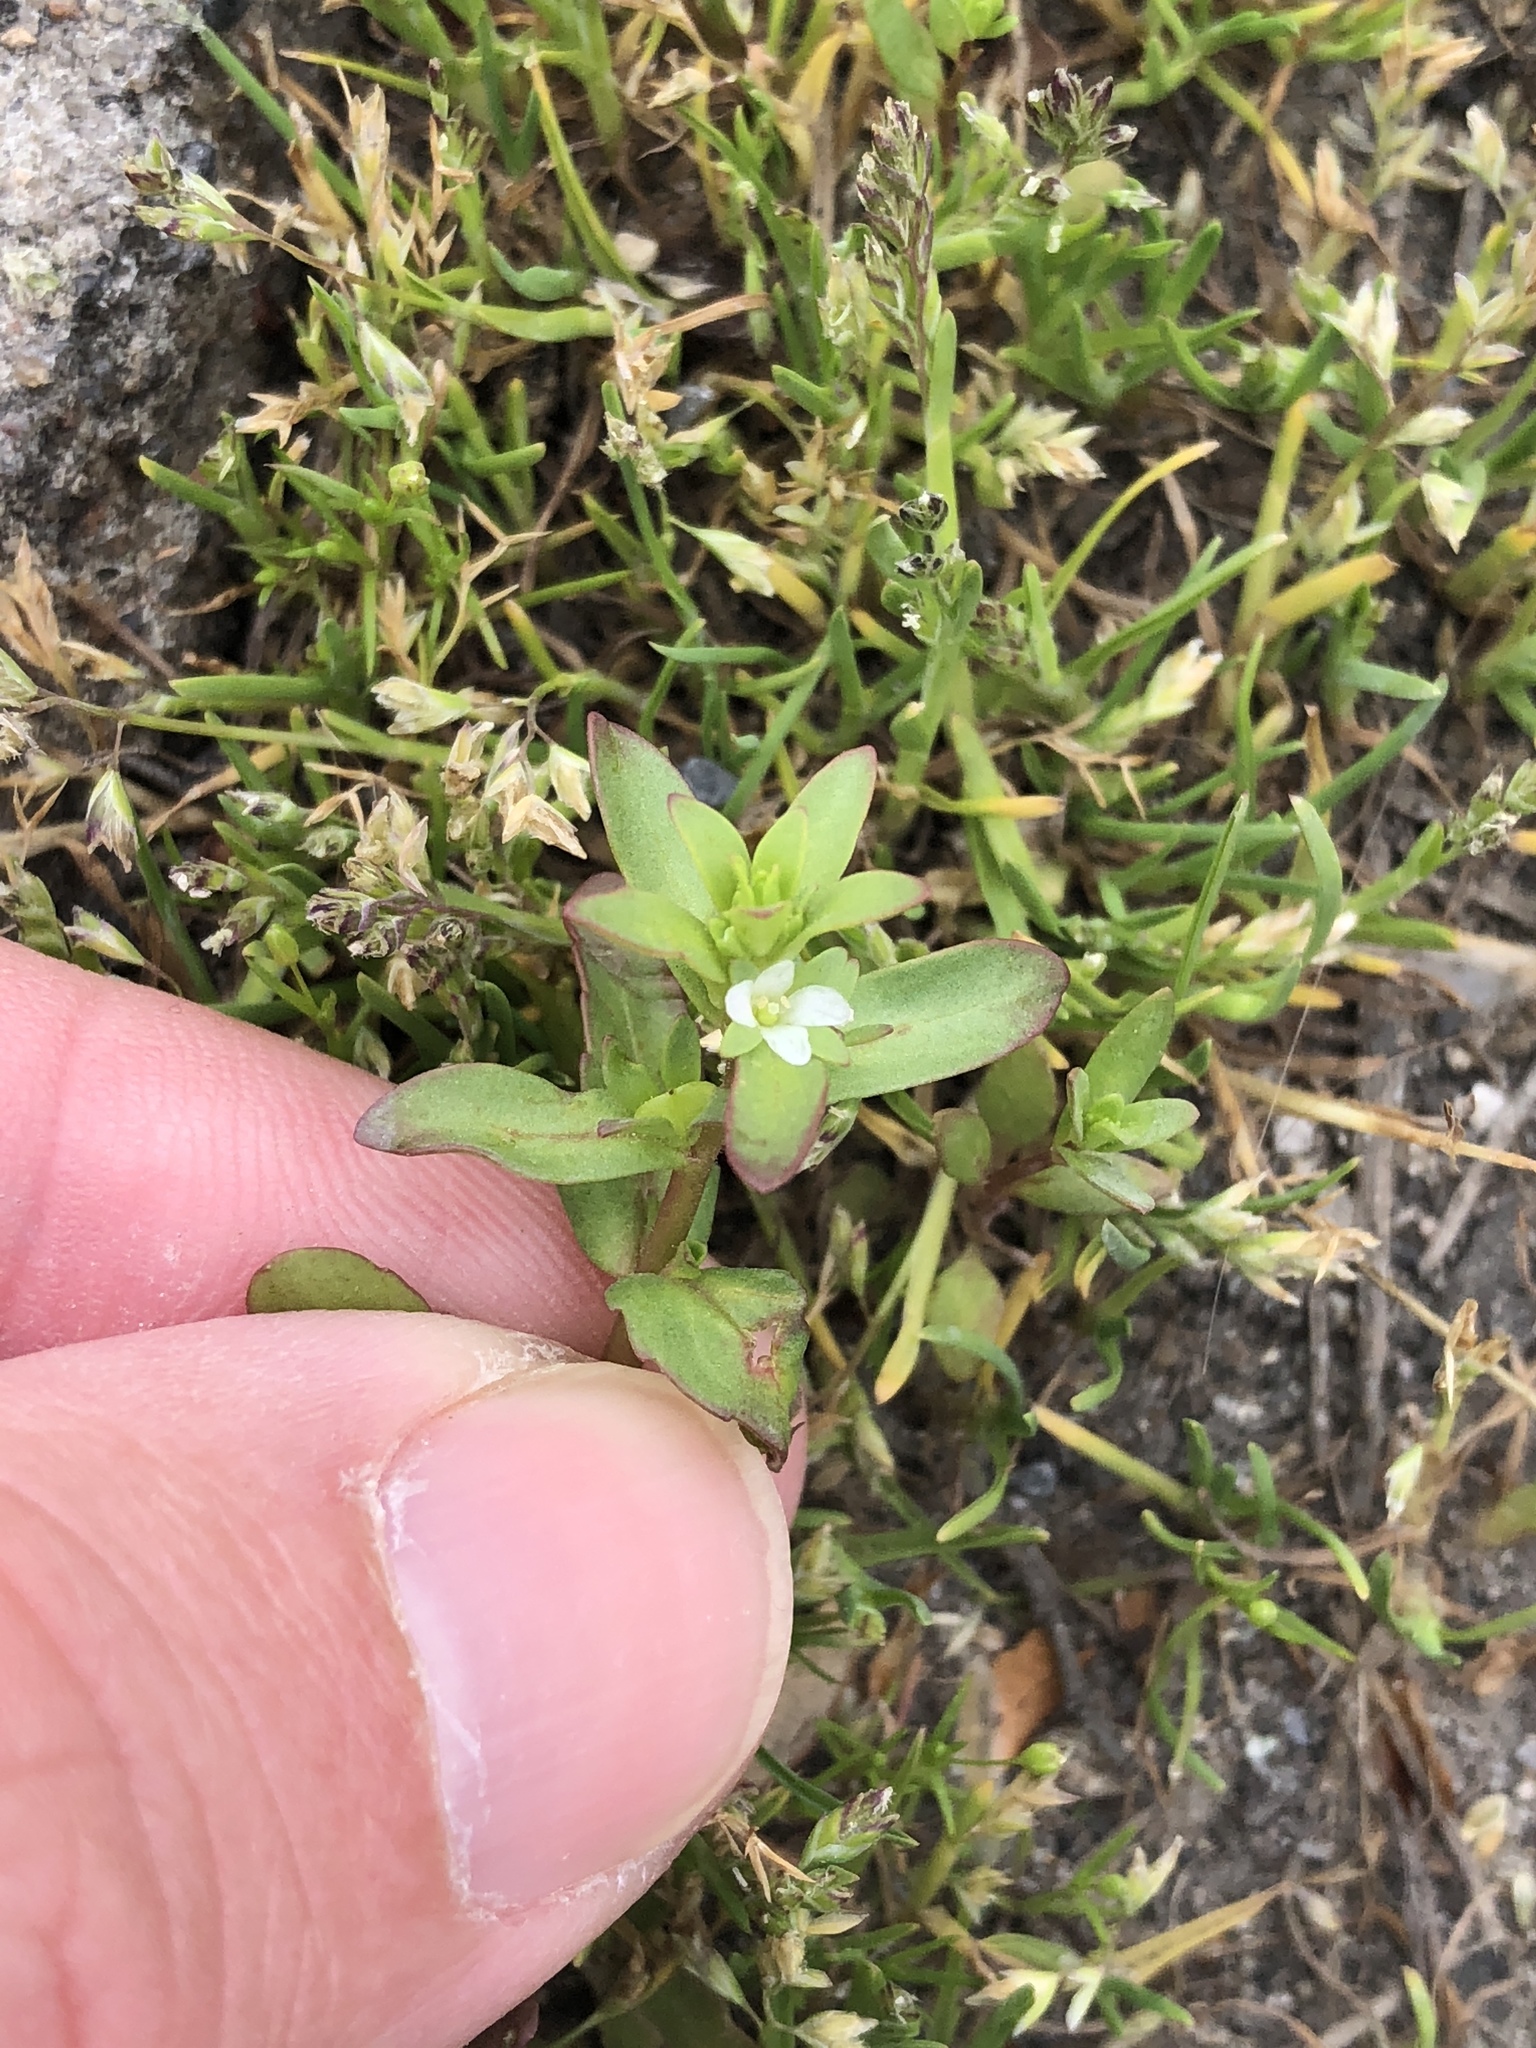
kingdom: Plantae
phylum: Tracheophyta
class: Magnoliopsida
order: Lamiales
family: Plantaginaceae
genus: Veronica
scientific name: Veronica peregrina
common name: Neckweed
